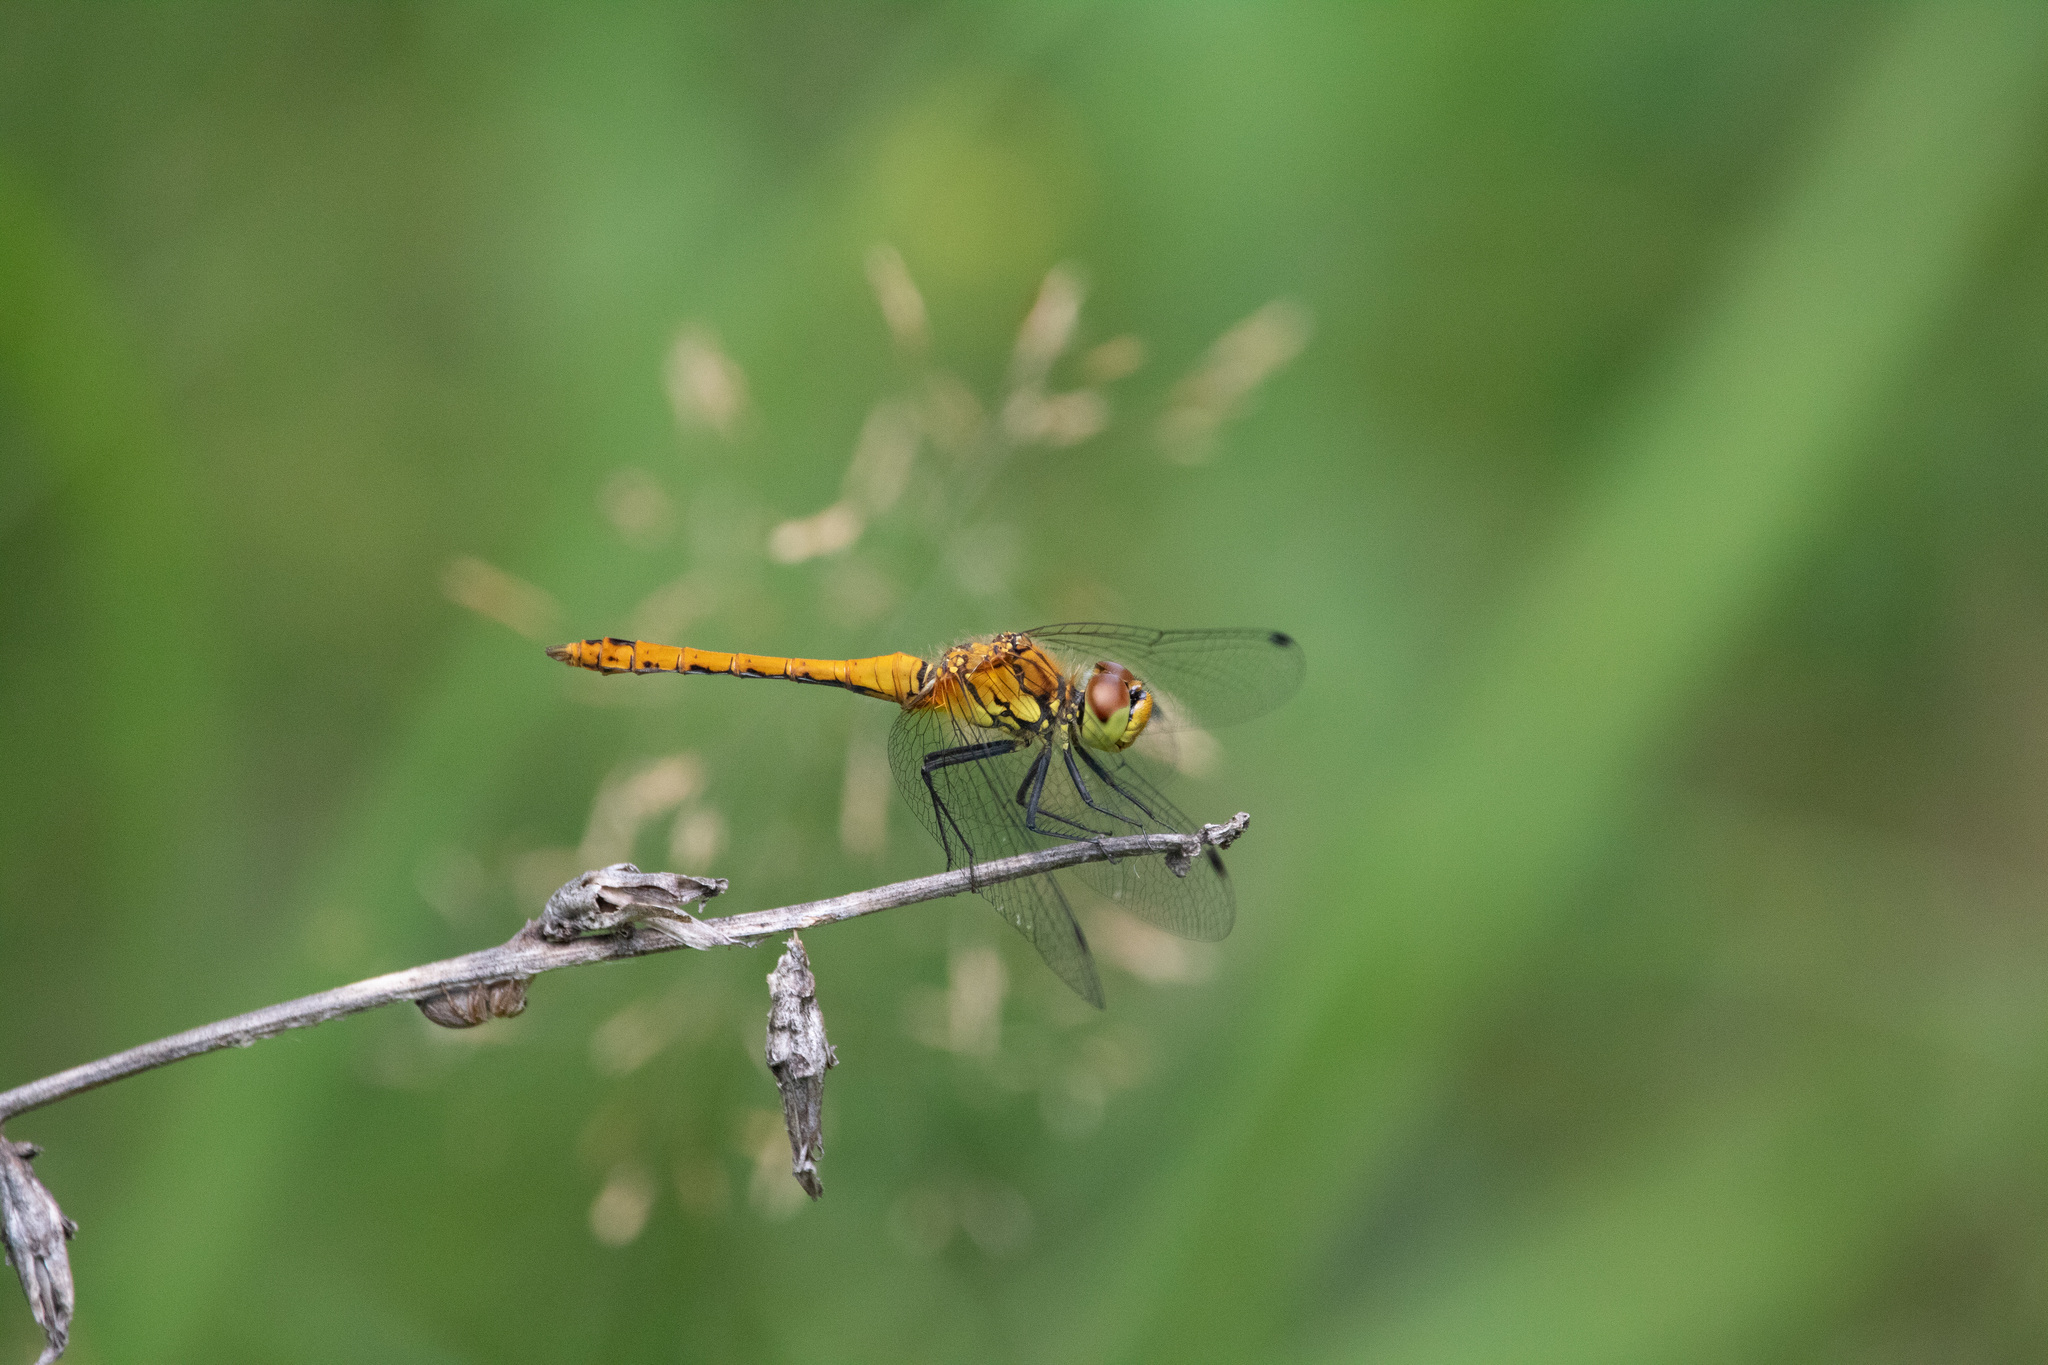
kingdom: Animalia
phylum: Arthropoda
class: Insecta
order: Odonata
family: Libellulidae
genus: Sympetrum
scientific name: Sympetrum sanguineum
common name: Ruddy darter
